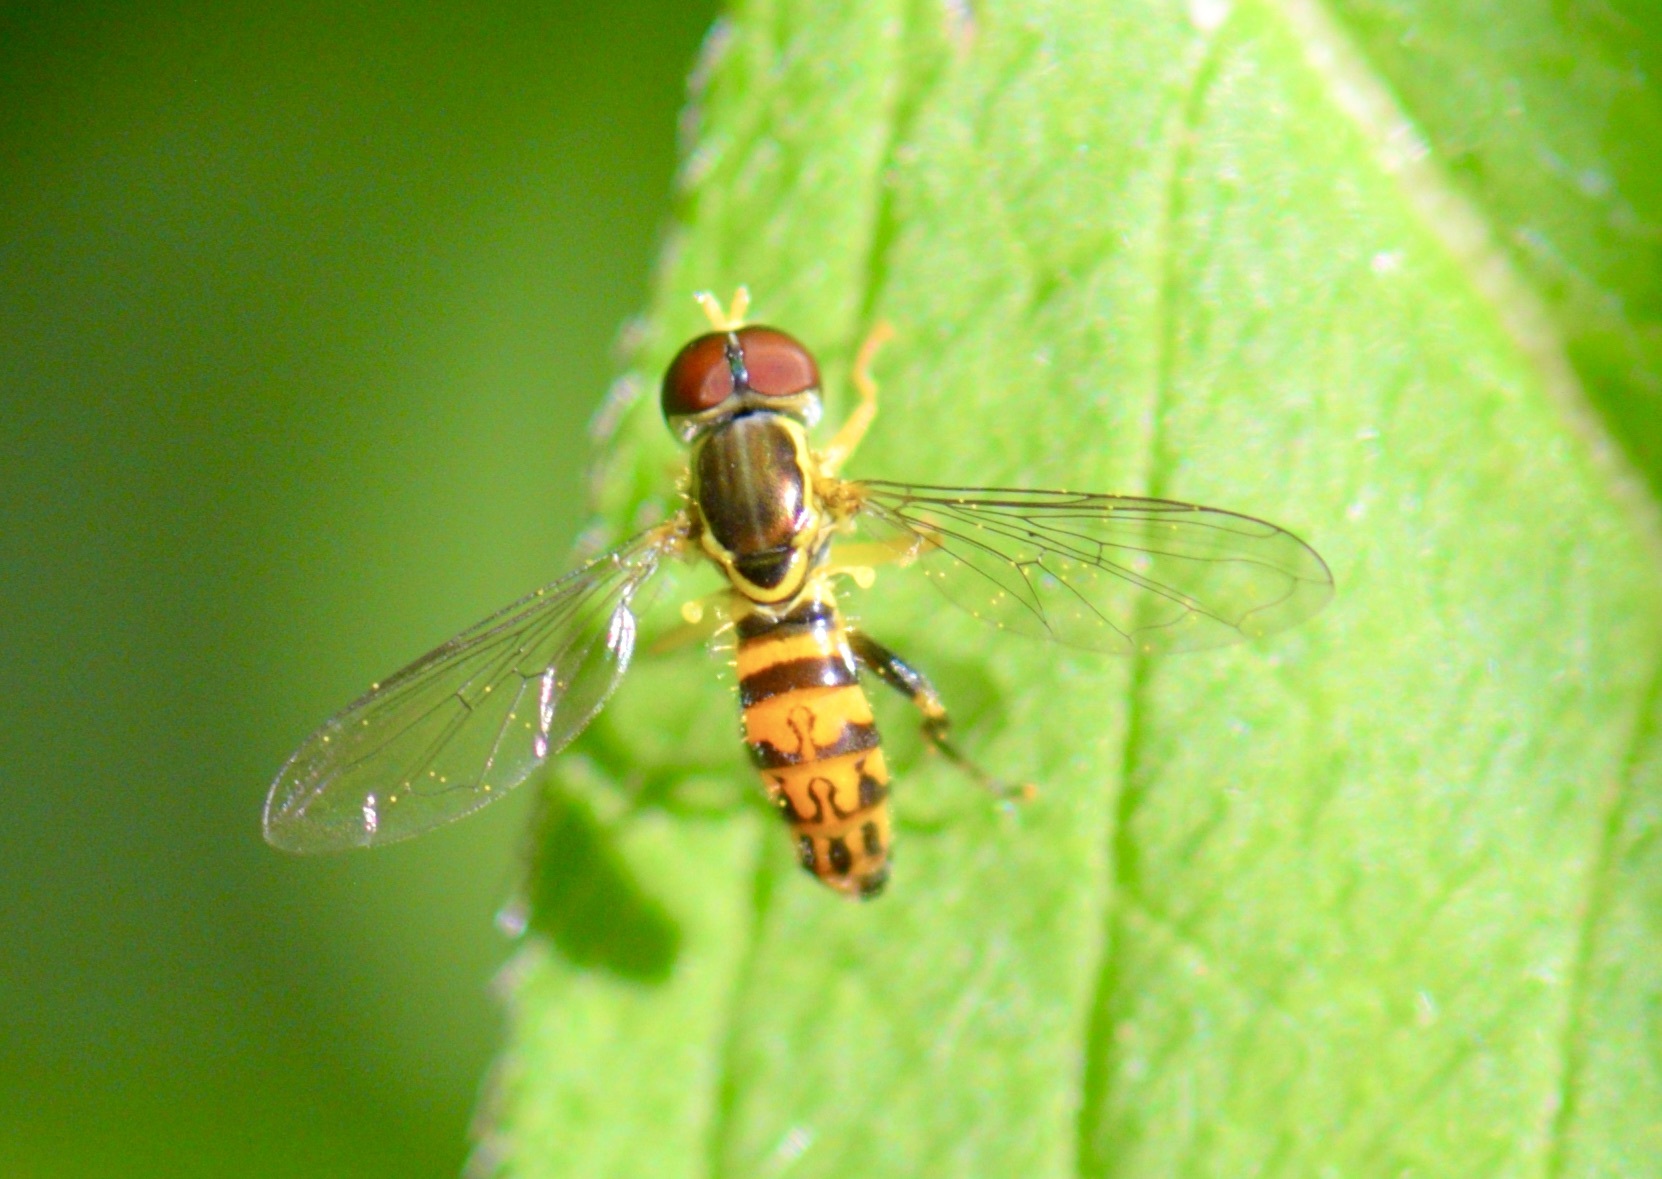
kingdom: Animalia
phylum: Arthropoda
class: Insecta
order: Diptera
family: Syrphidae
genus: Toxomerus
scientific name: Toxomerus geminatus
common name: Eastern calligrapher
